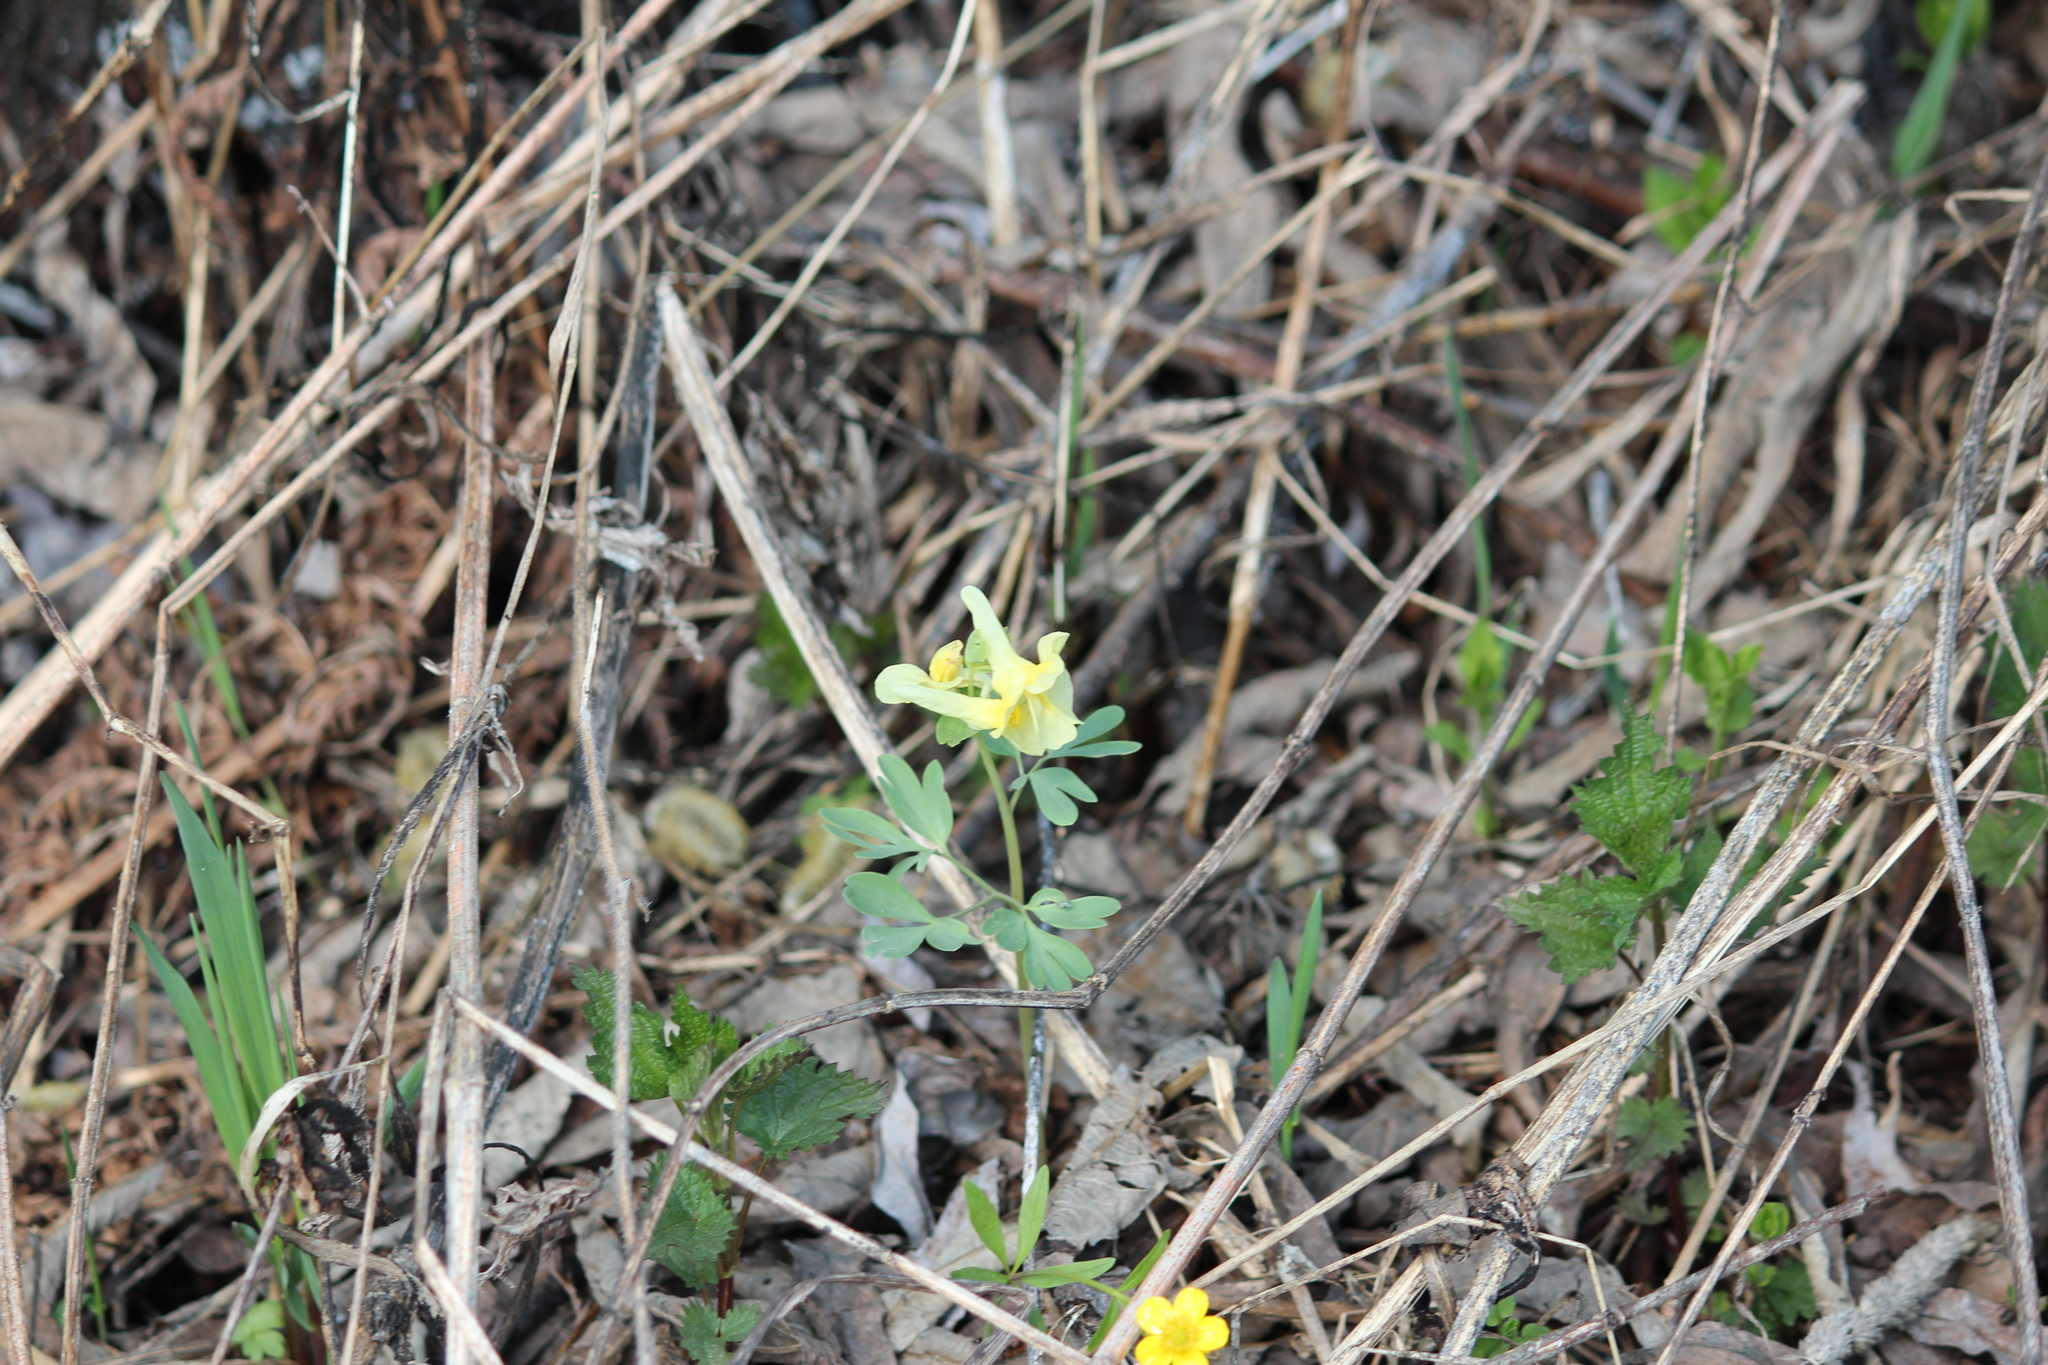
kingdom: Plantae
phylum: Tracheophyta
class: Magnoliopsida
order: Ranunculales
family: Papaveraceae
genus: Corydalis
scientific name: Corydalis bracteata
